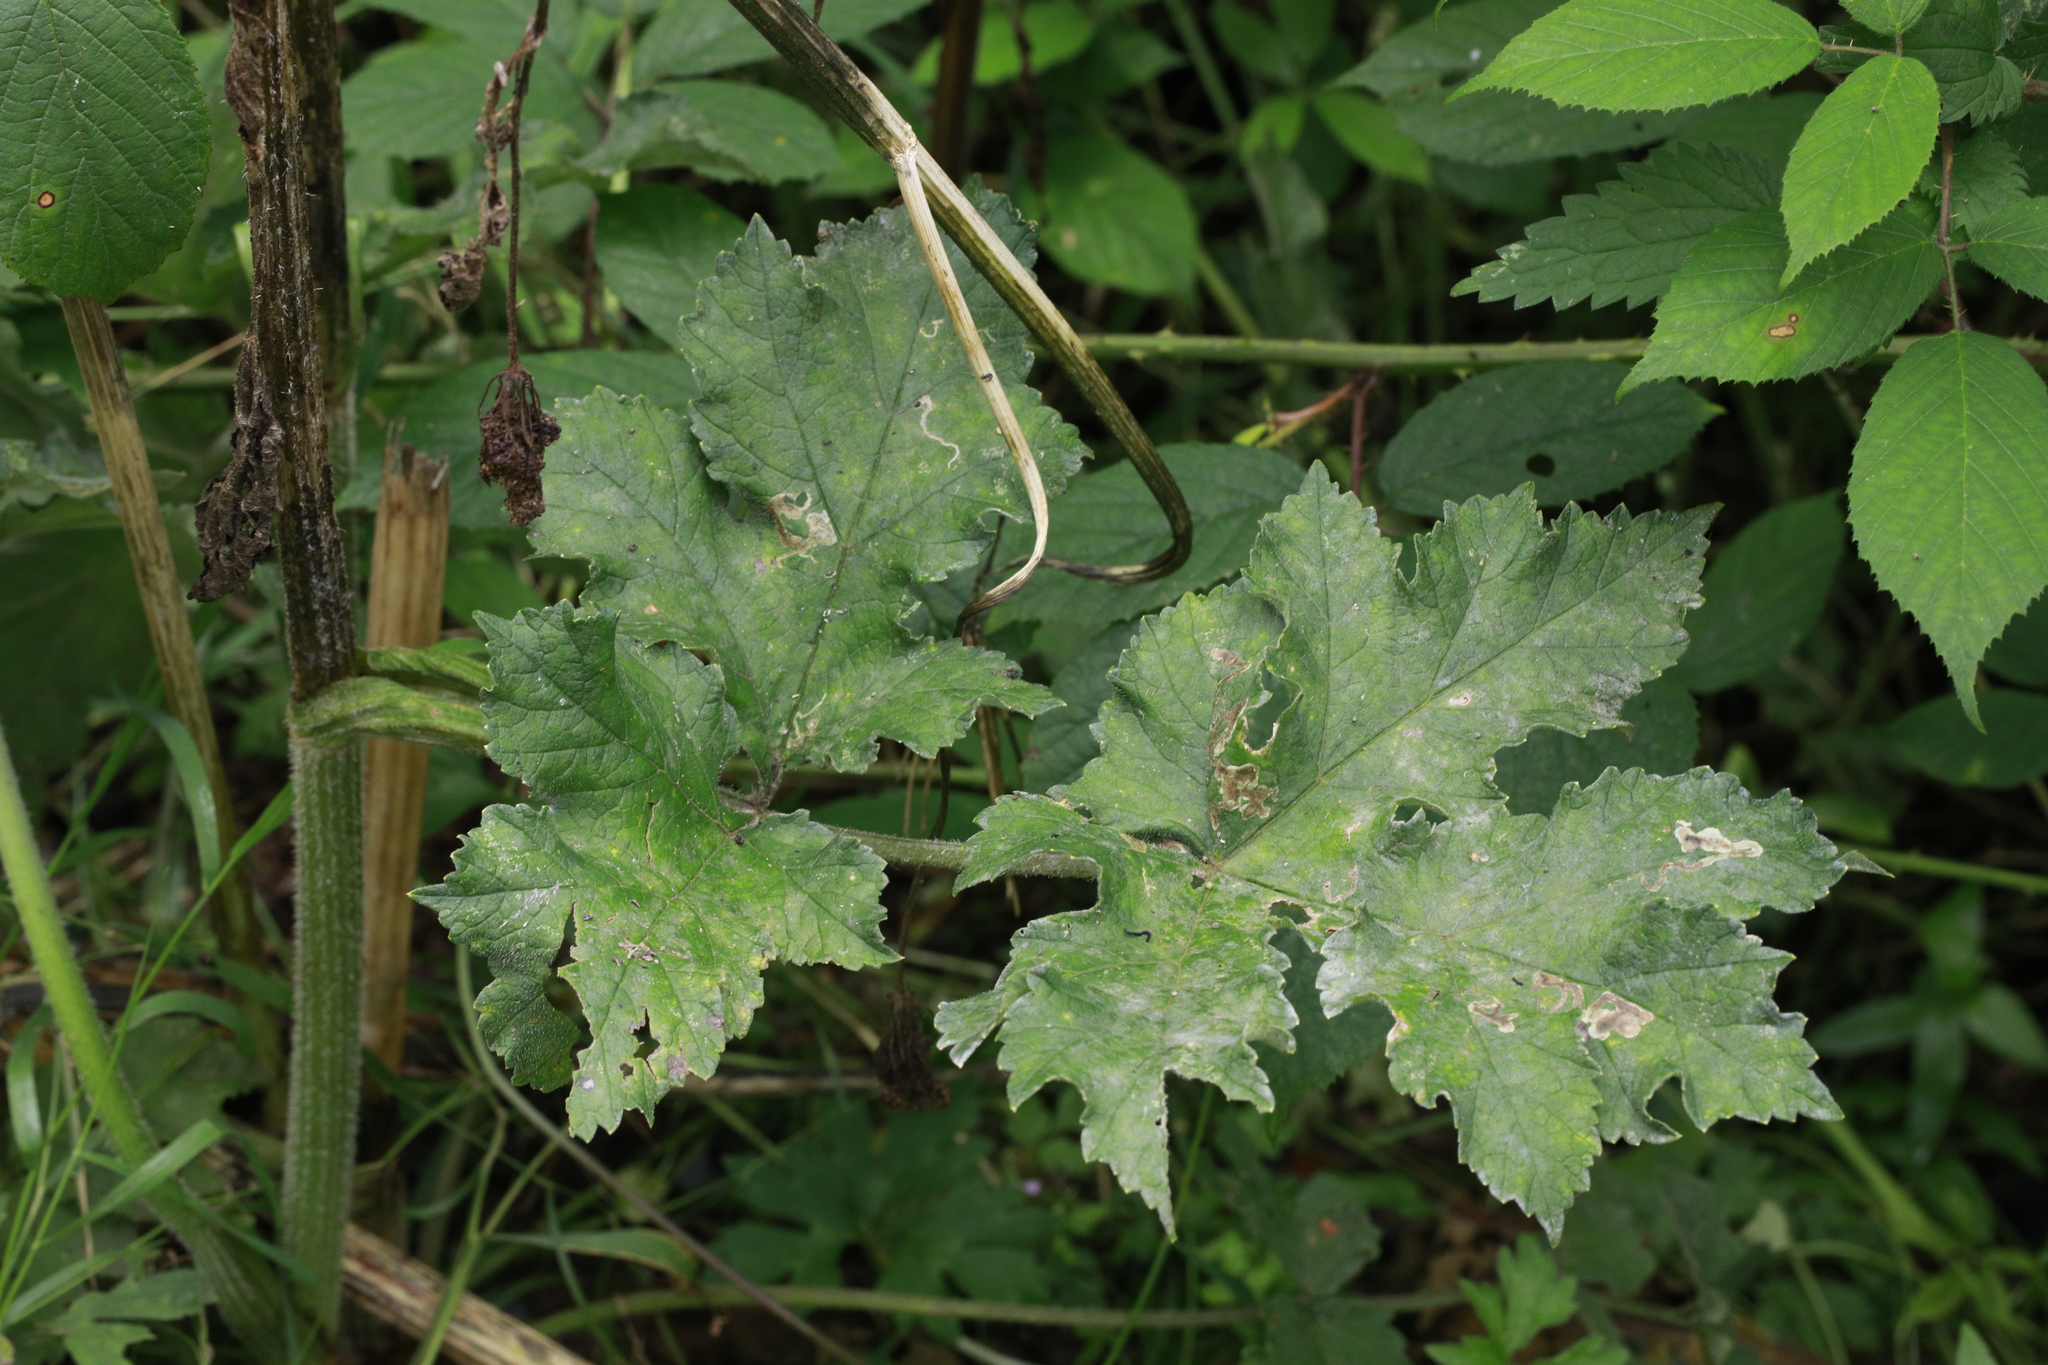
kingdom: Plantae
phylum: Tracheophyta
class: Magnoliopsida
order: Apiales
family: Apiaceae
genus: Heracleum
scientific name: Heracleum sphondylium
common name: Hogweed
